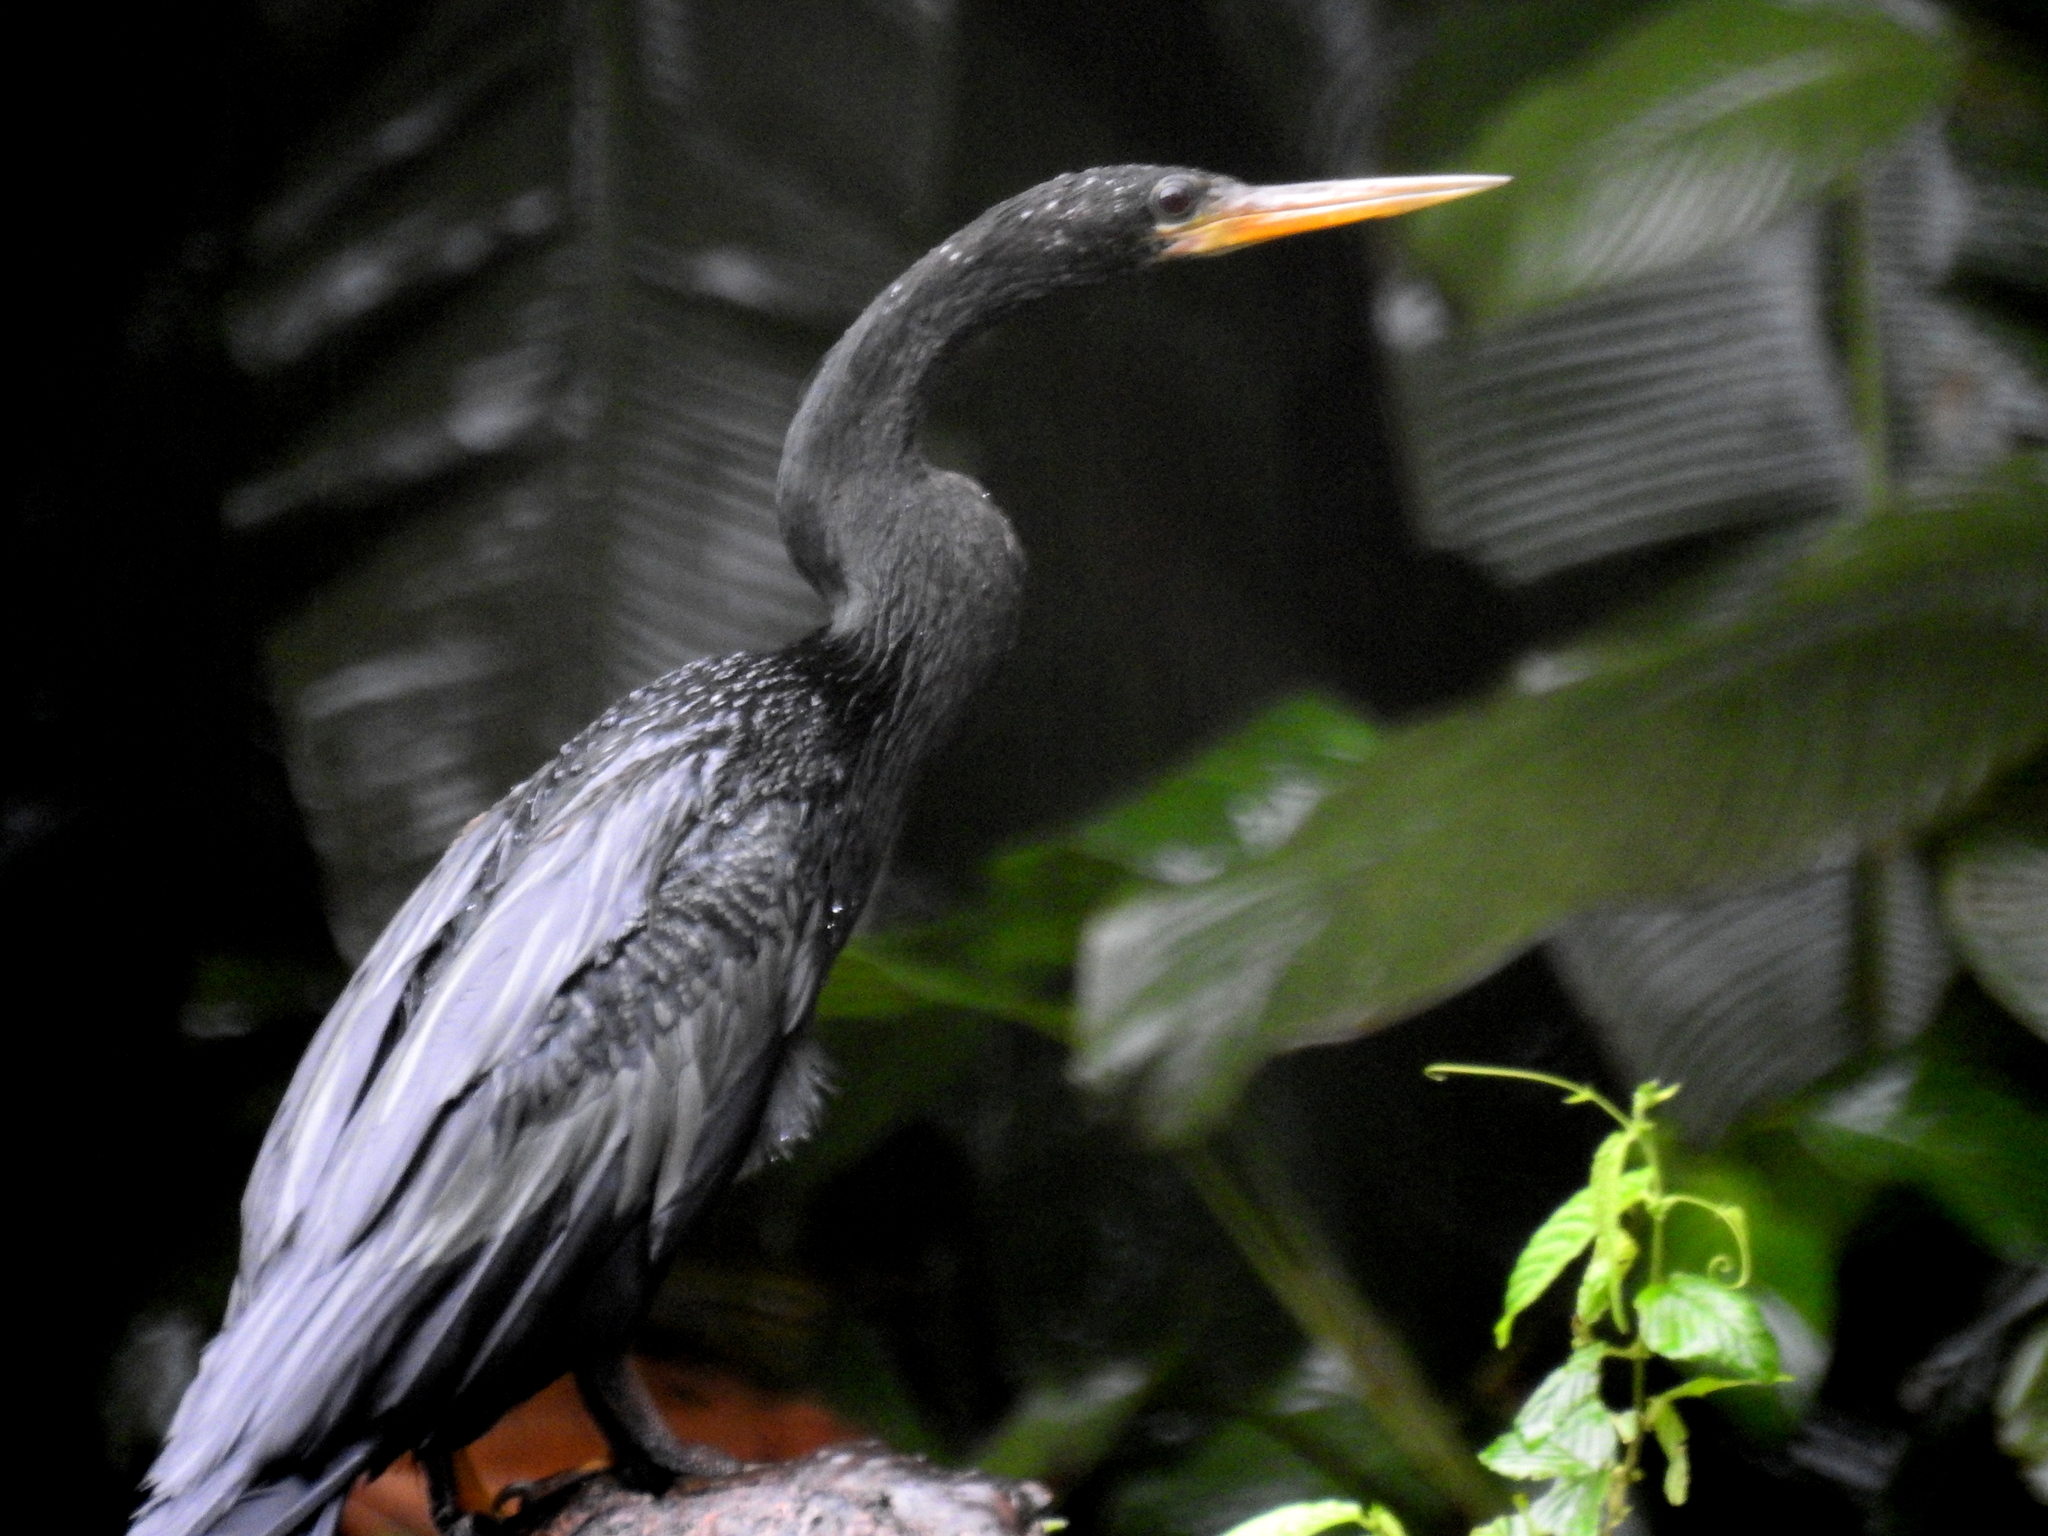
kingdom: Animalia
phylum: Chordata
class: Aves
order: Suliformes
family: Anhingidae
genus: Anhinga
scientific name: Anhinga anhinga
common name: Anhinga
